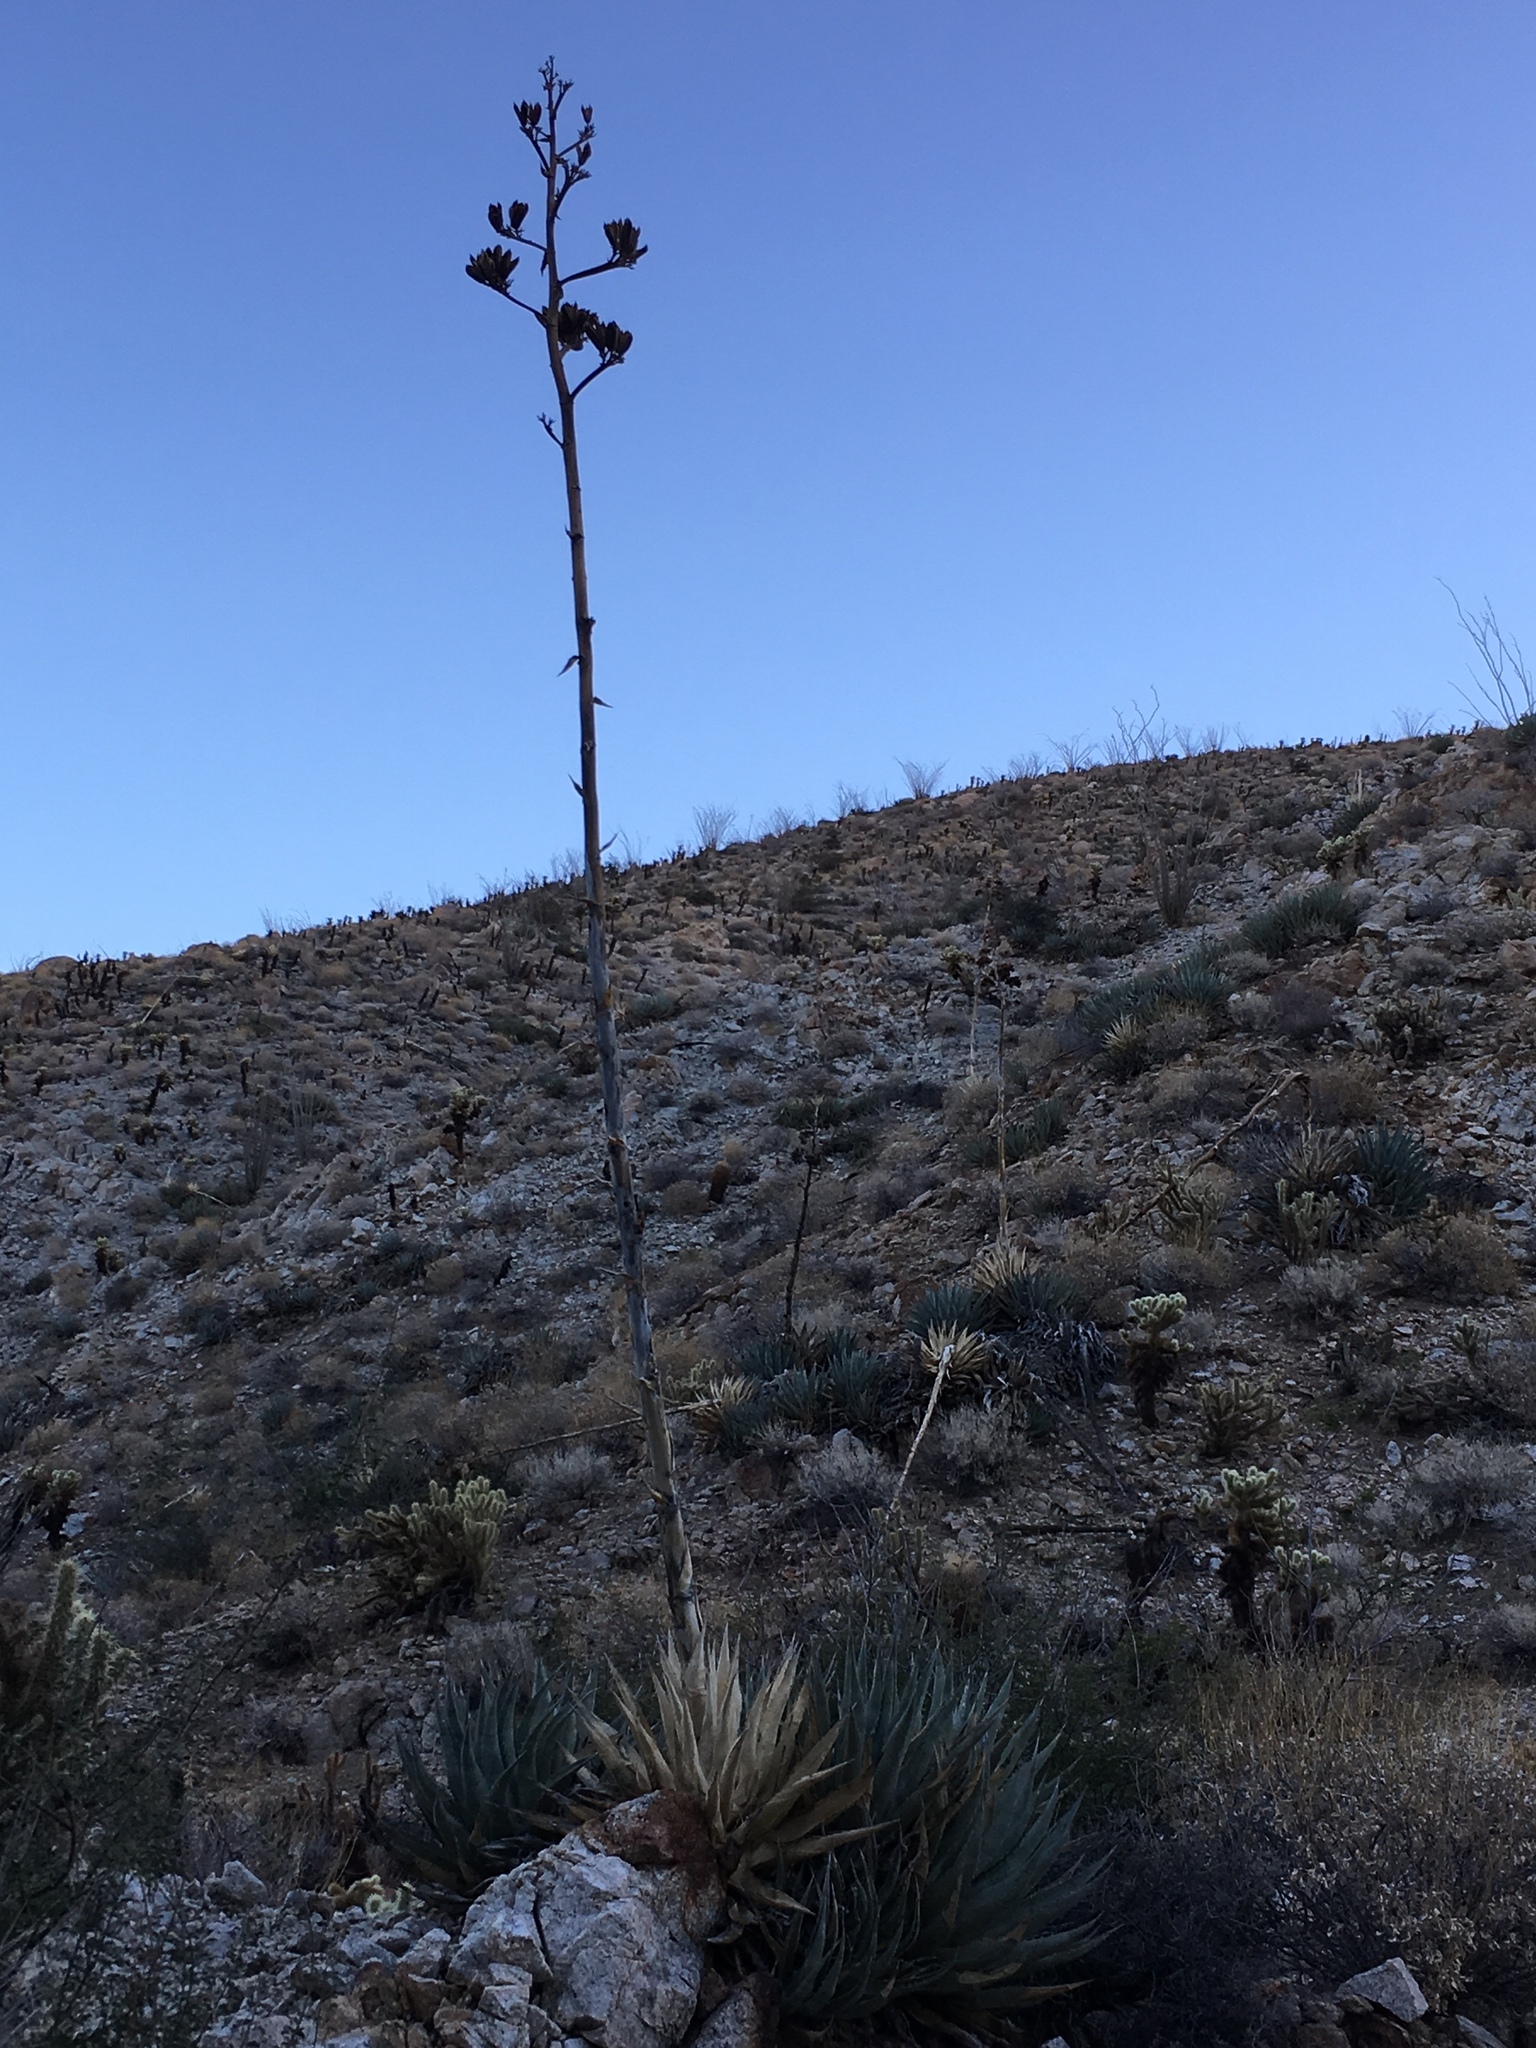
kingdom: Plantae
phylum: Tracheophyta
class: Liliopsida
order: Asparagales
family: Asparagaceae
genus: Agave
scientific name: Agave deserti
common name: Desert agave
